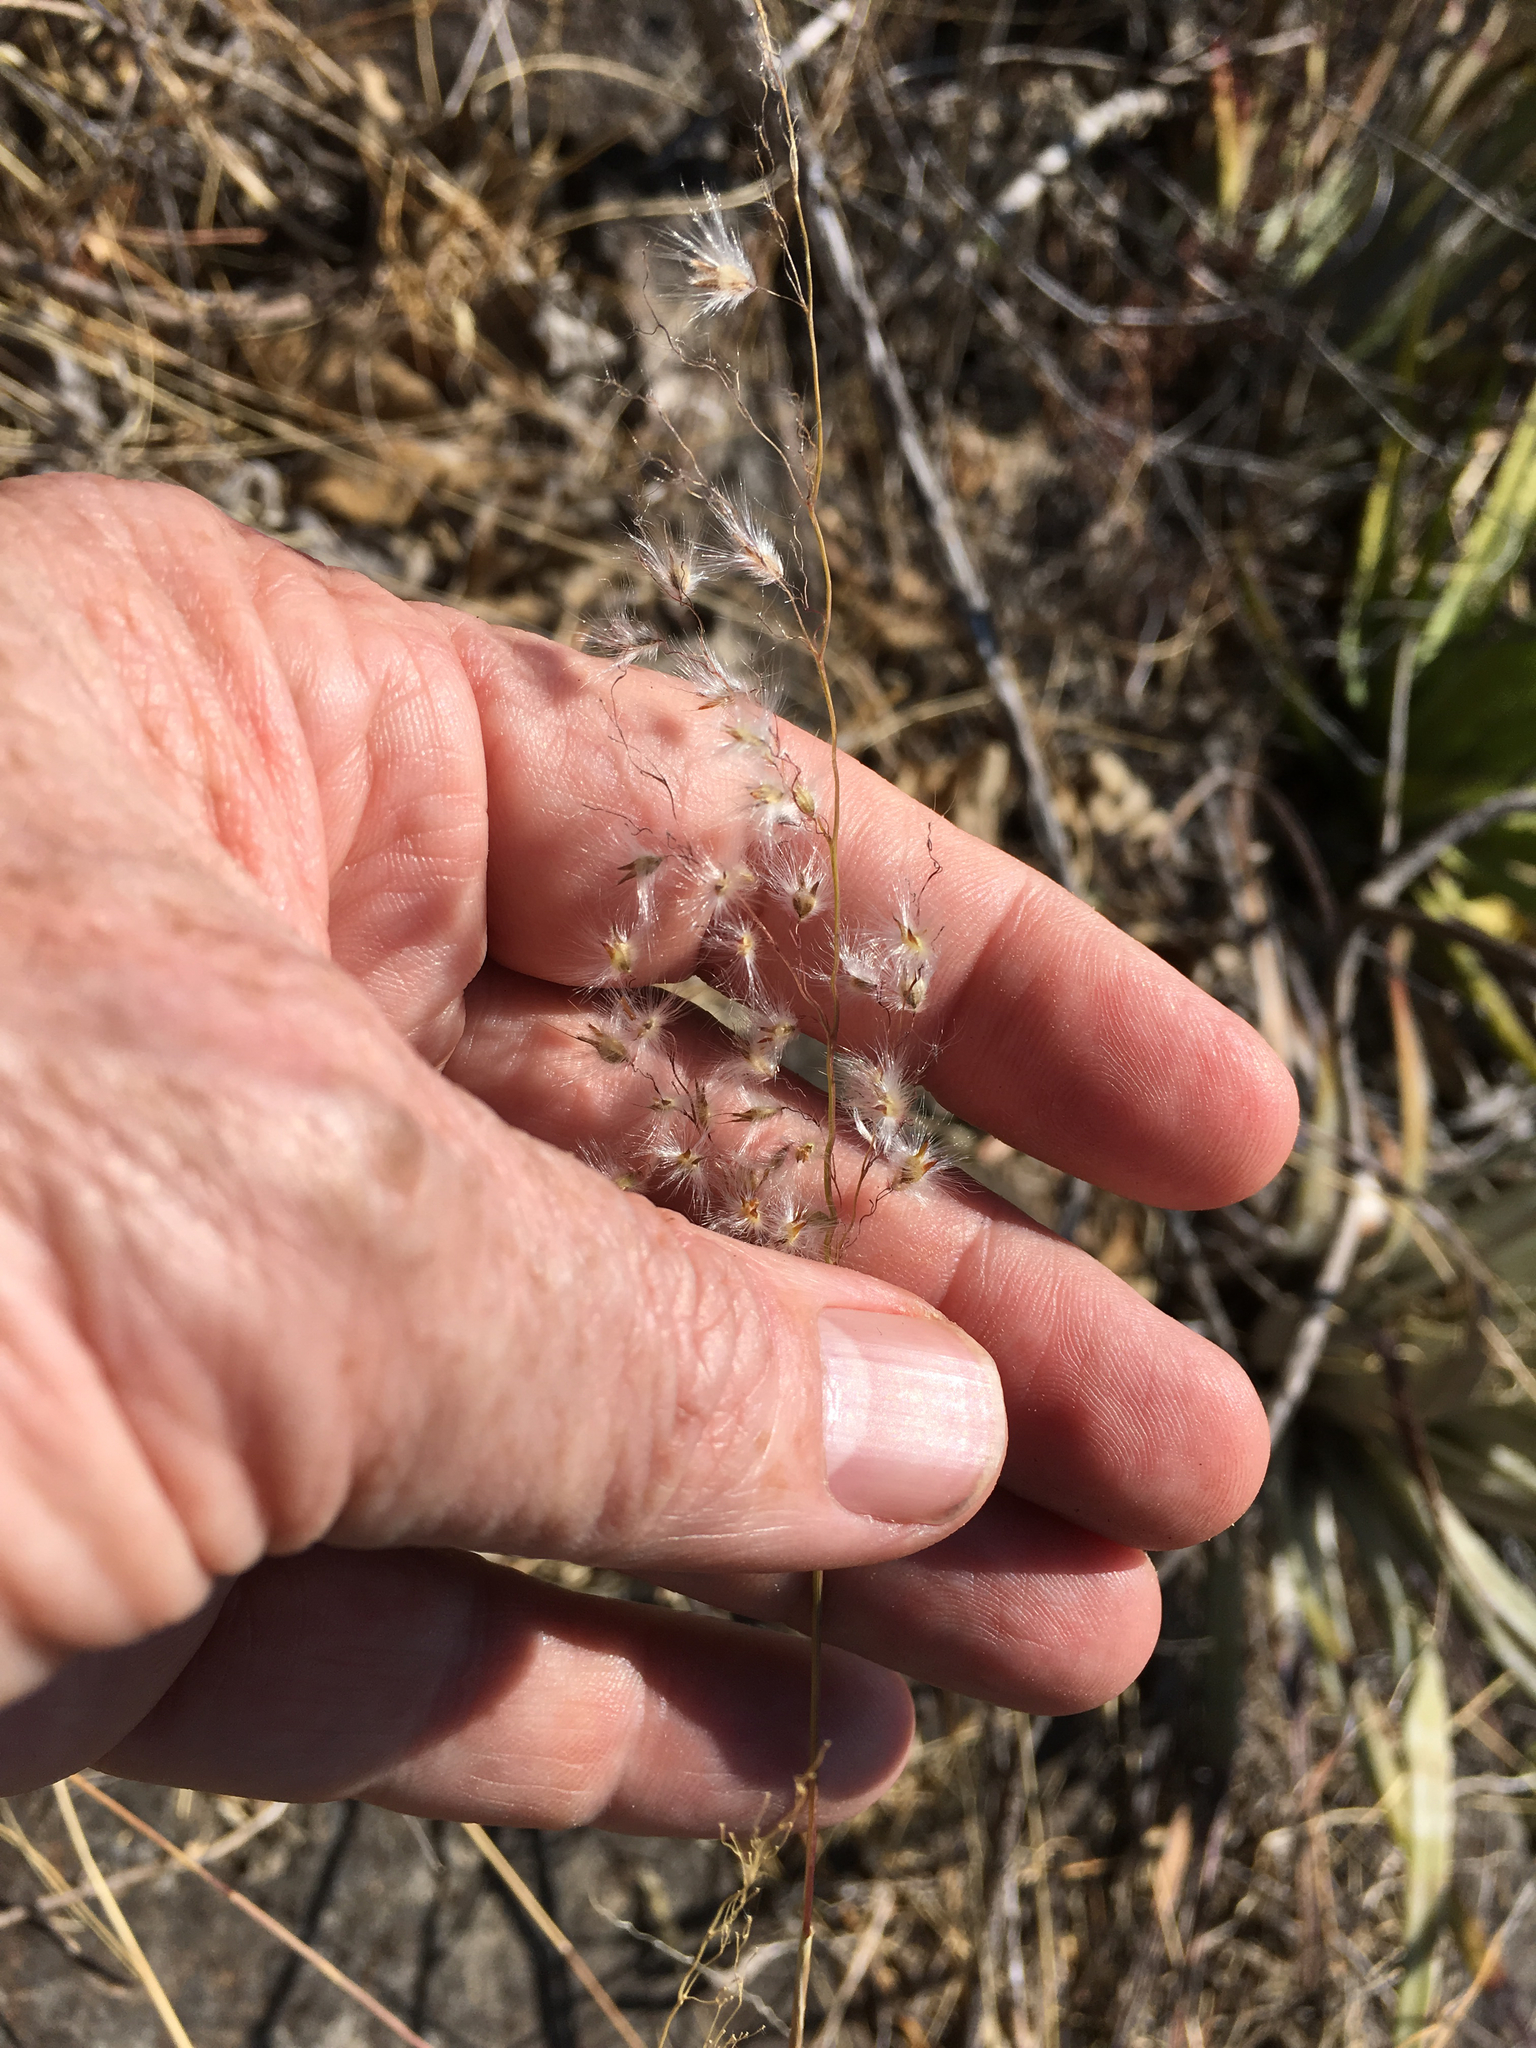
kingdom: Plantae
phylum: Tracheophyta
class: Liliopsida
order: Poales
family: Poaceae
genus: Melinis
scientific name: Melinis repens
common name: Rose natal grass
